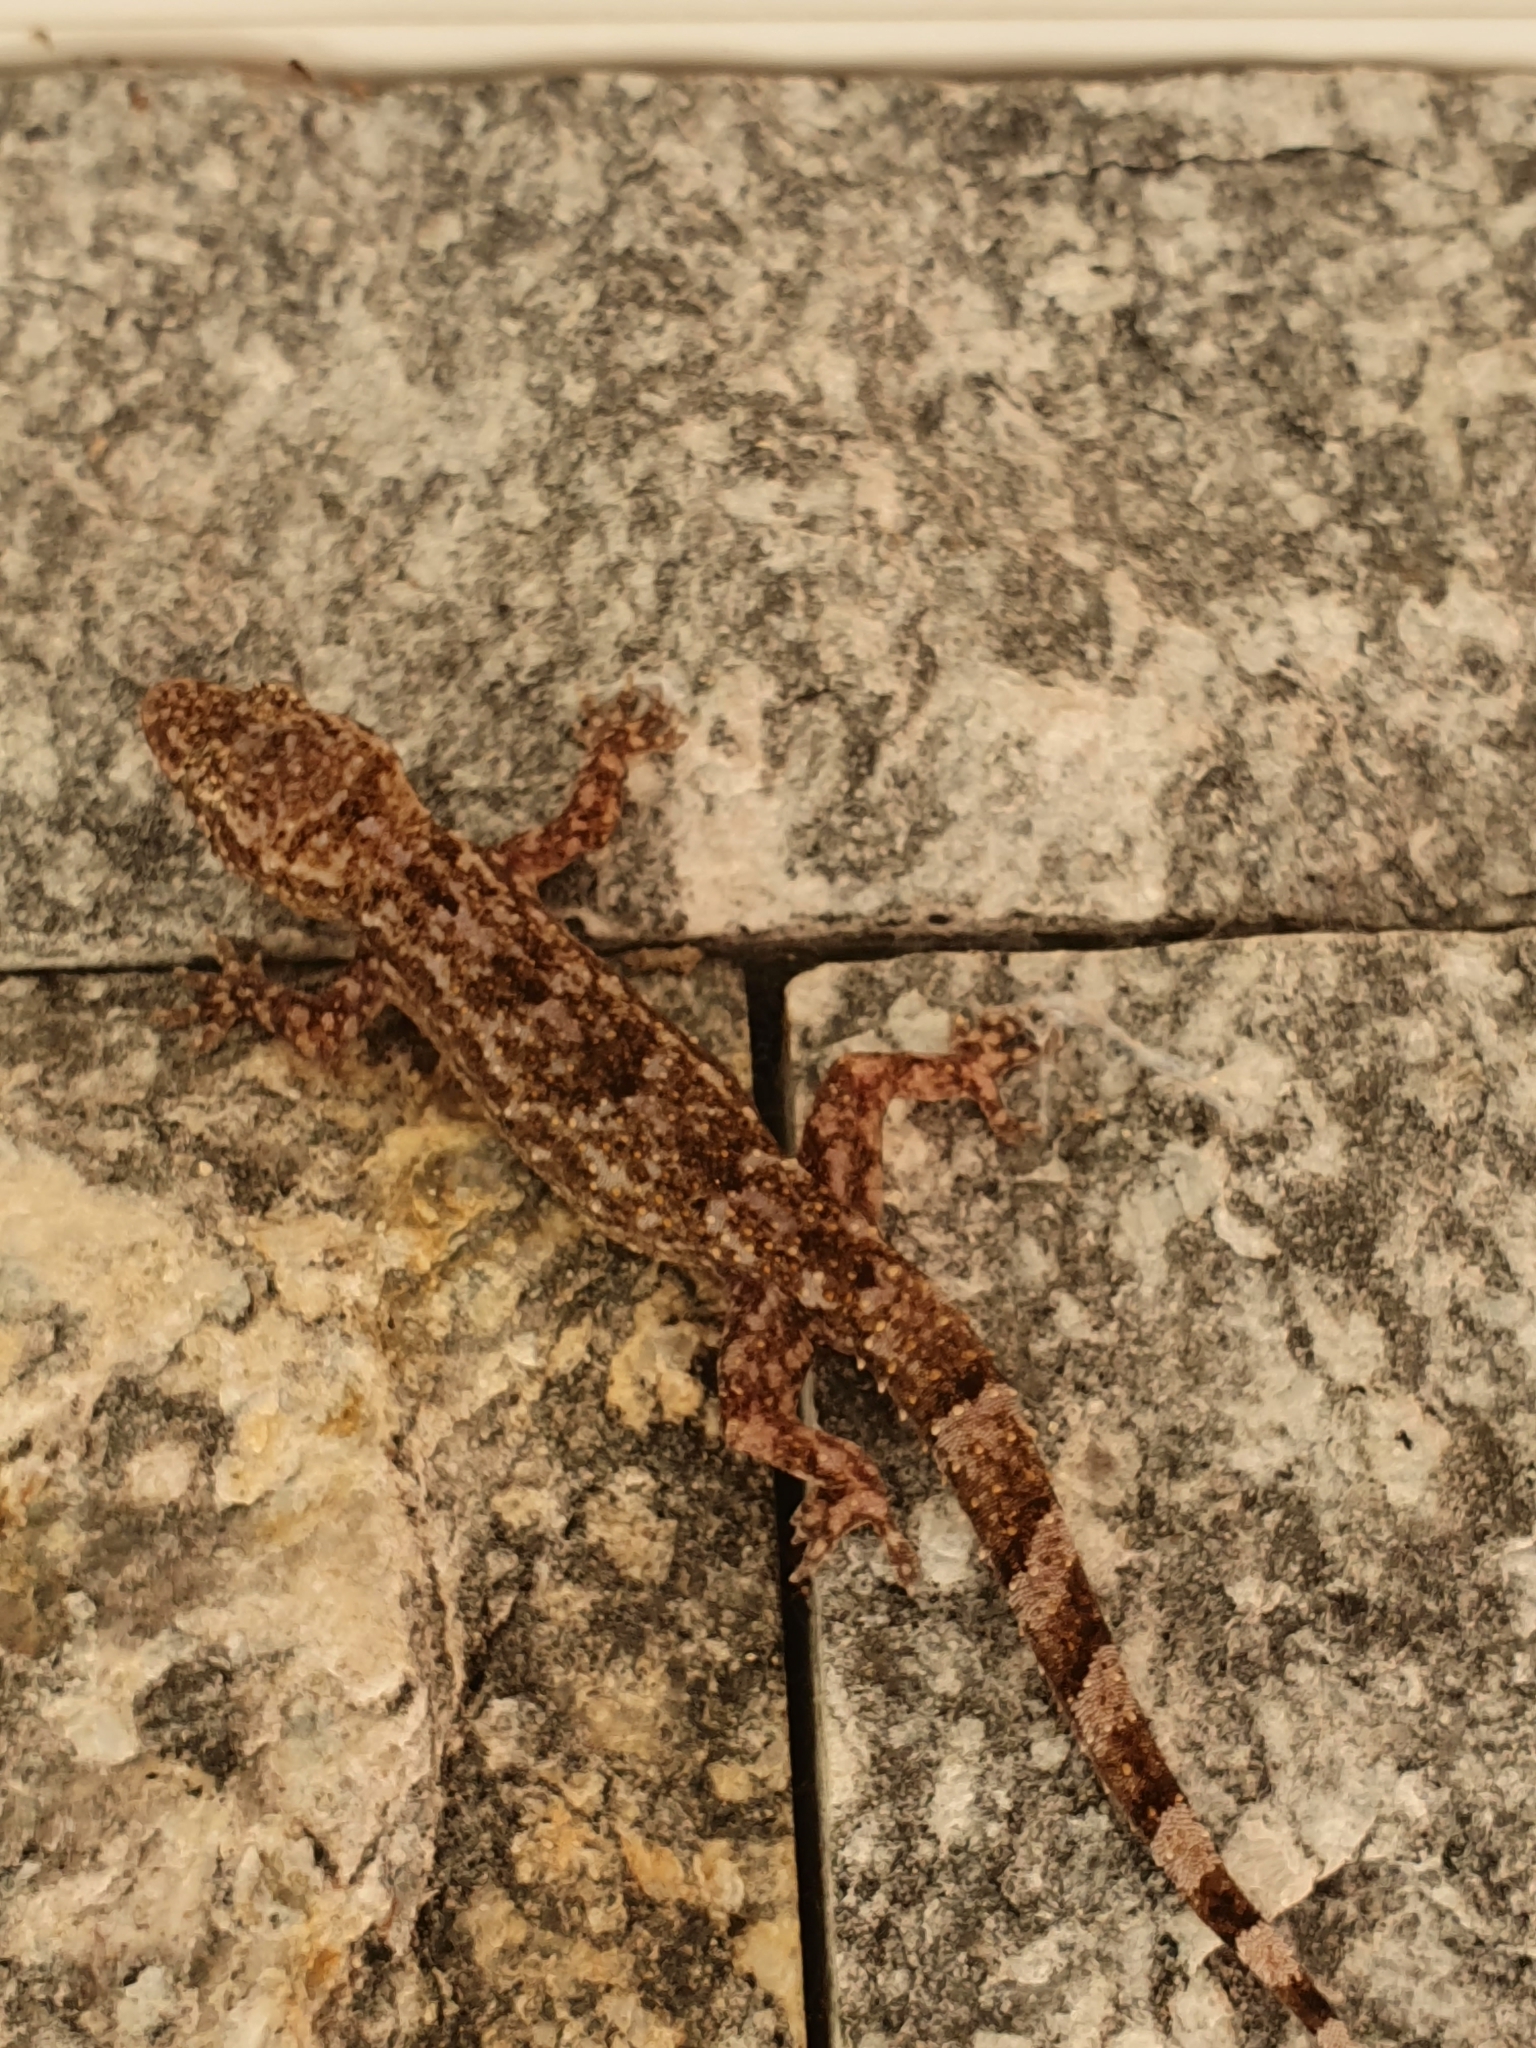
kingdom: Animalia
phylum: Chordata
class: Squamata
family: Gekkonidae
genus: Hemidactylus
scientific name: Hemidactylus mabouia
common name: House gecko
